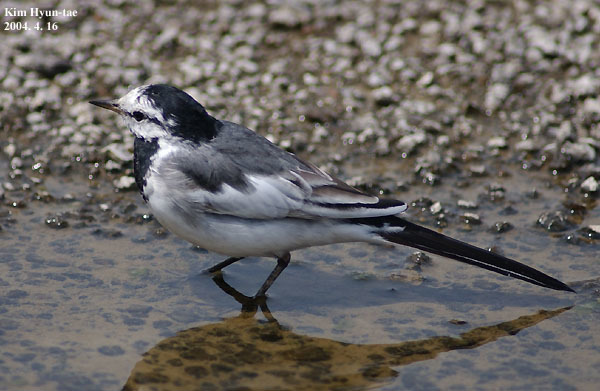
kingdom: Animalia
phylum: Chordata
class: Aves
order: Passeriformes
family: Motacillidae
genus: Motacilla
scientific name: Motacilla alba
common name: White wagtail
